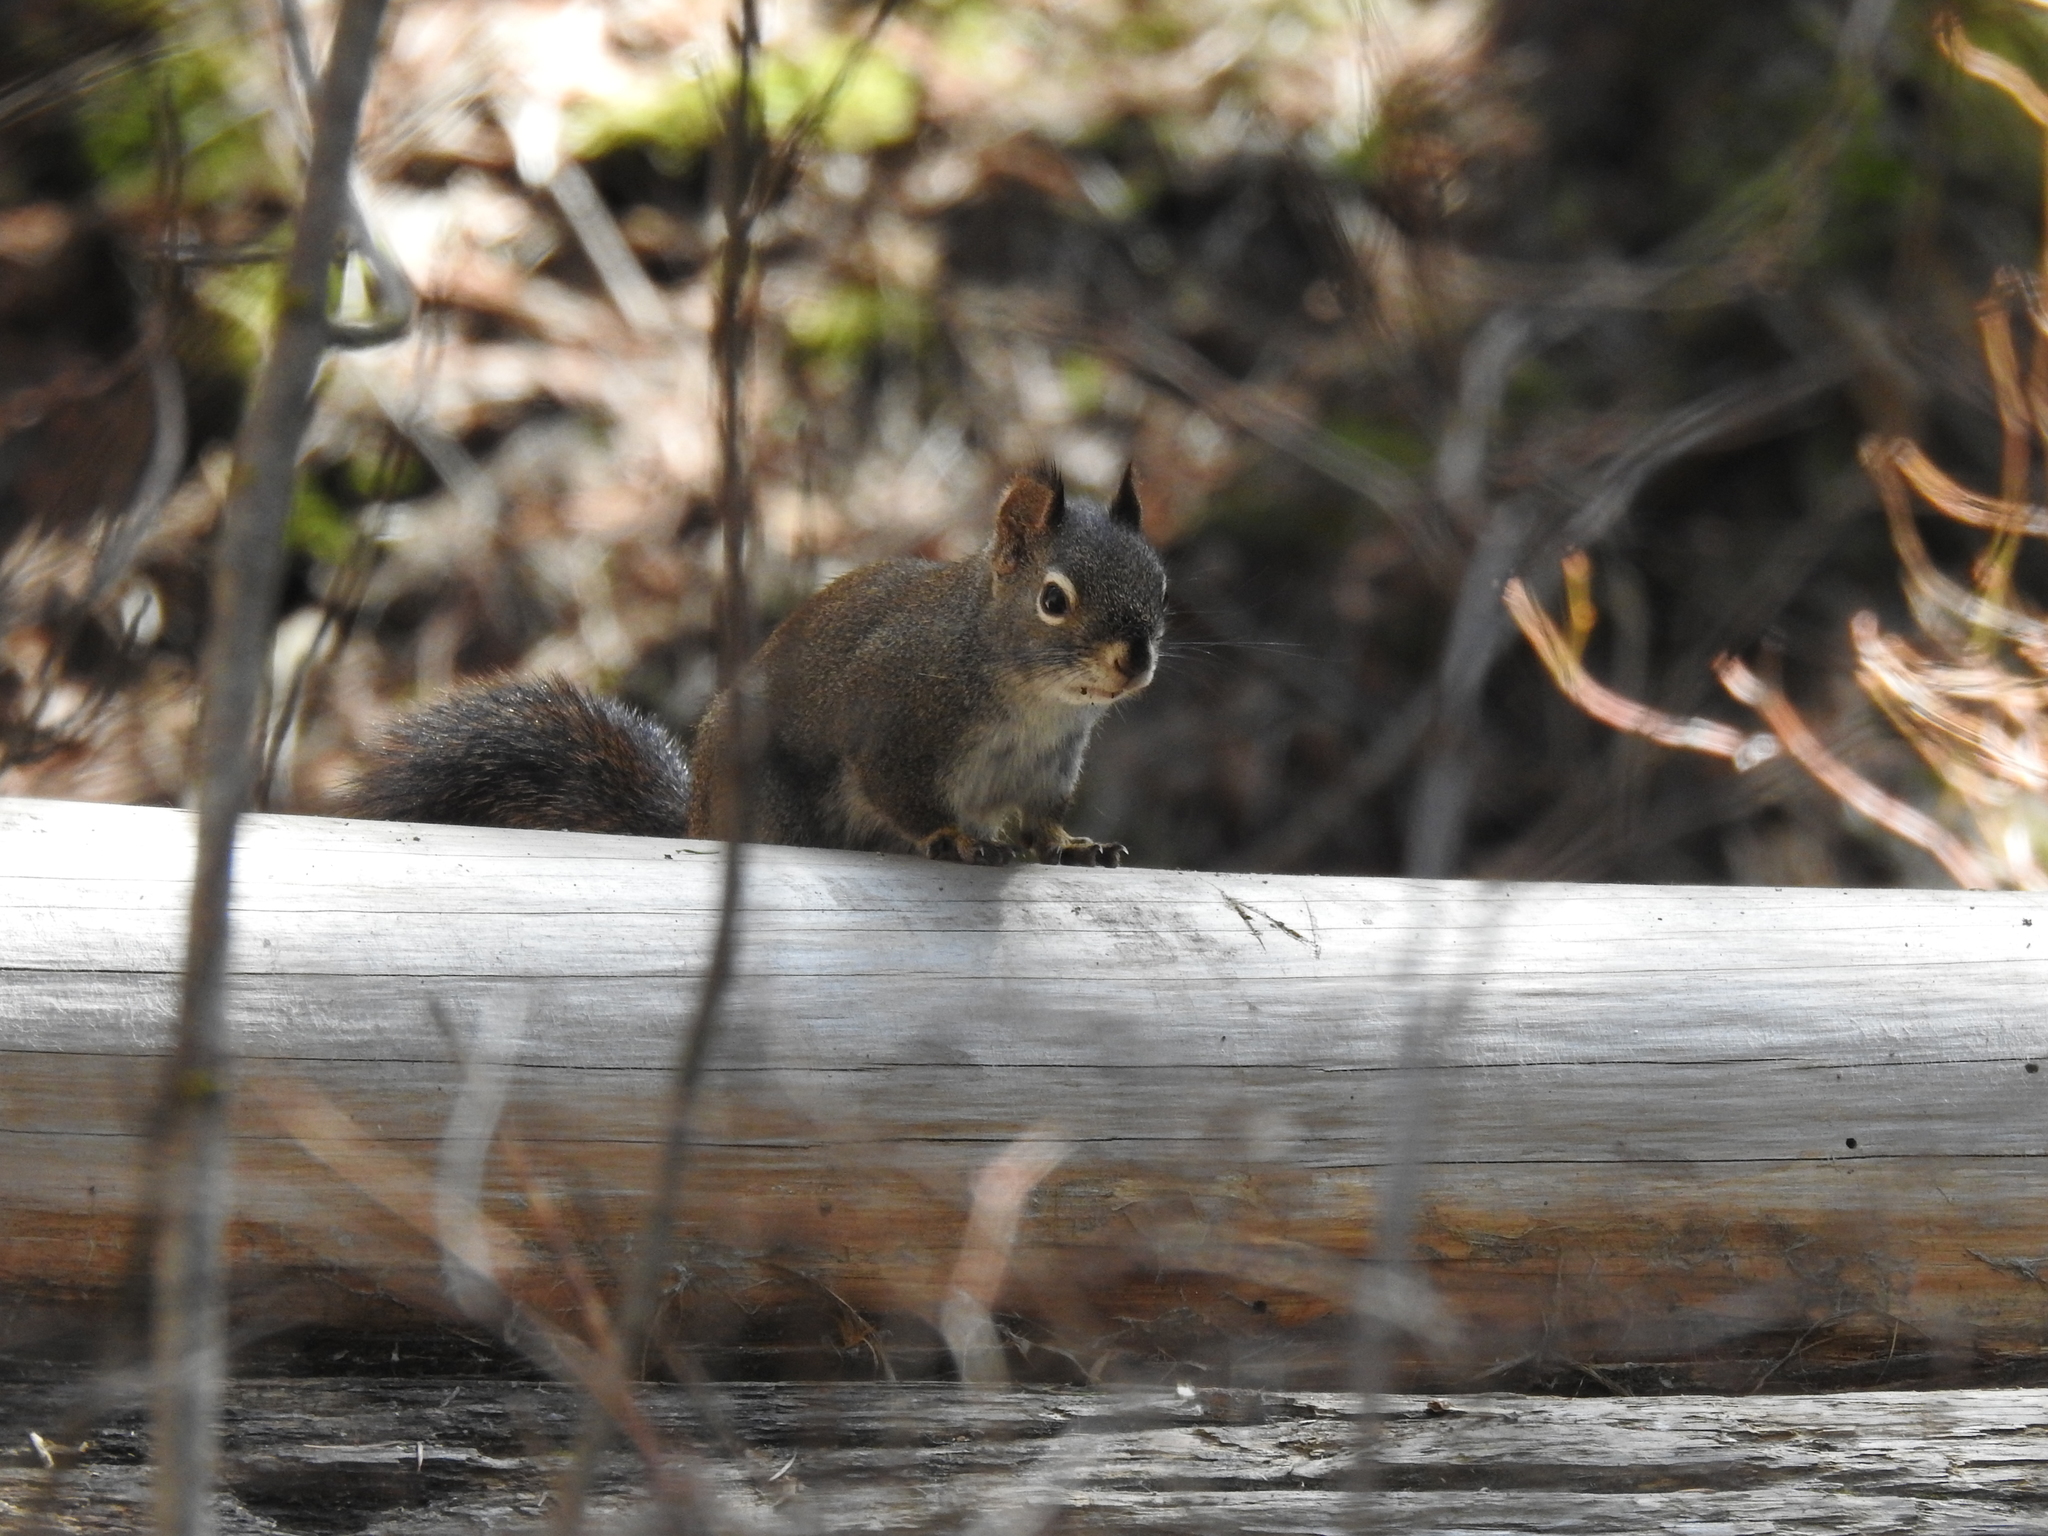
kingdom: Animalia
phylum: Chordata
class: Mammalia
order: Rodentia
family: Sciuridae
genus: Tamiasciurus
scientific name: Tamiasciurus hudsonicus
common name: Red squirrel
